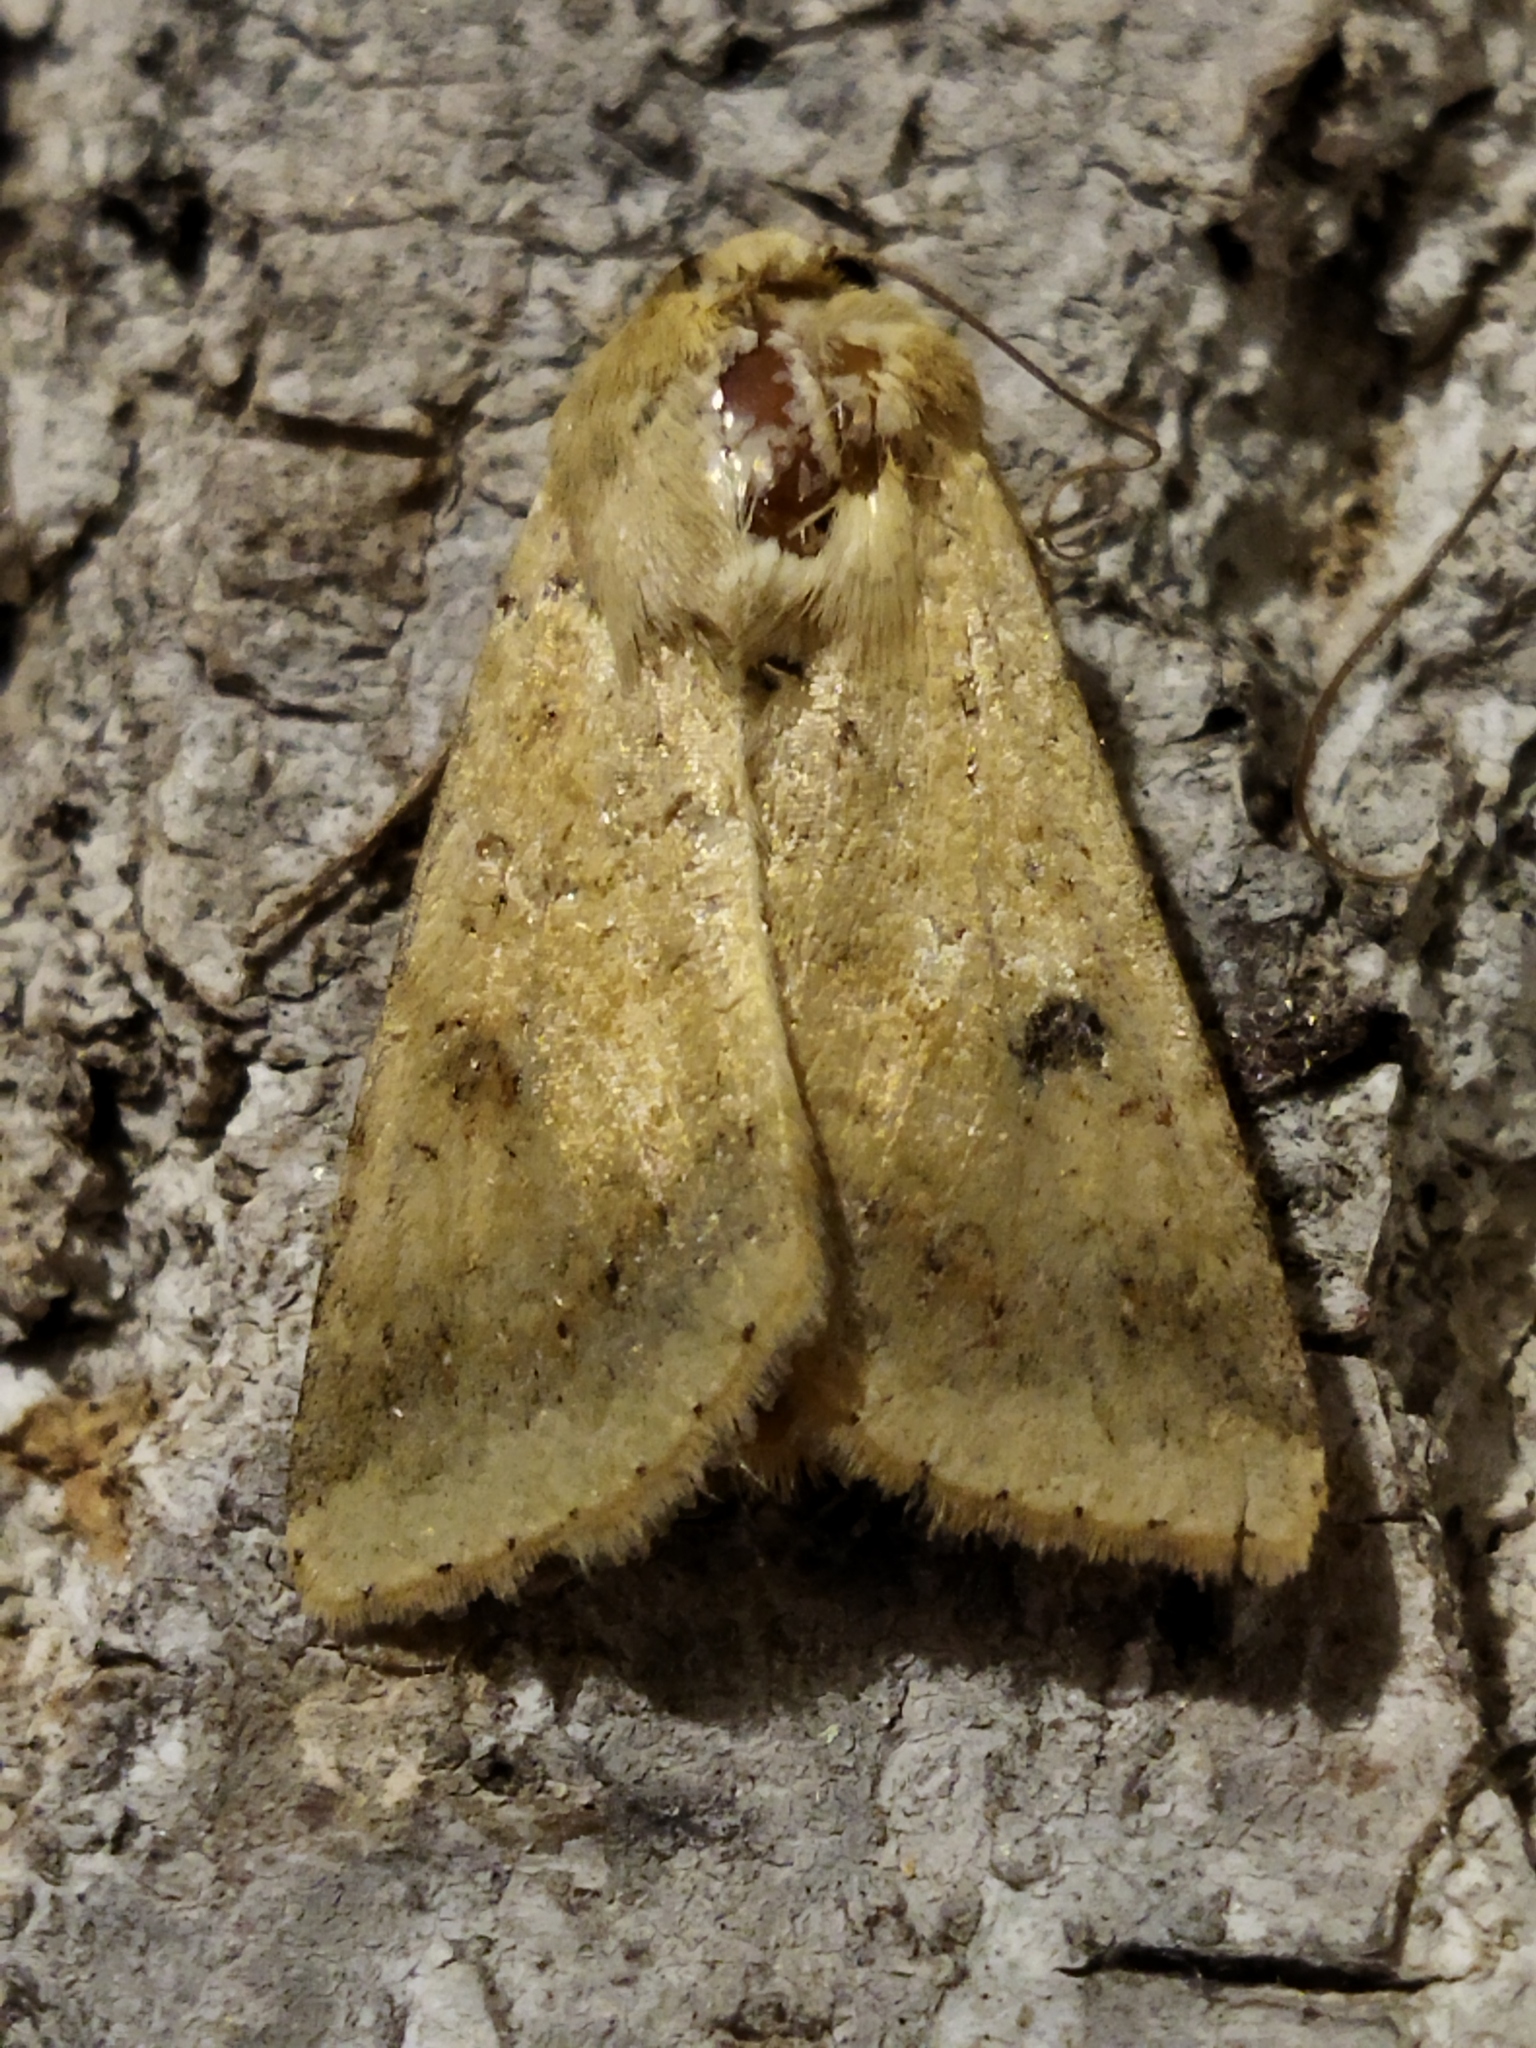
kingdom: Animalia
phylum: Arthropoda
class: Insecta
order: Lepidoptera
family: Noctuidae
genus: Helicoverpa
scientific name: Helicoverpa armigera
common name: Cotton bollworm
